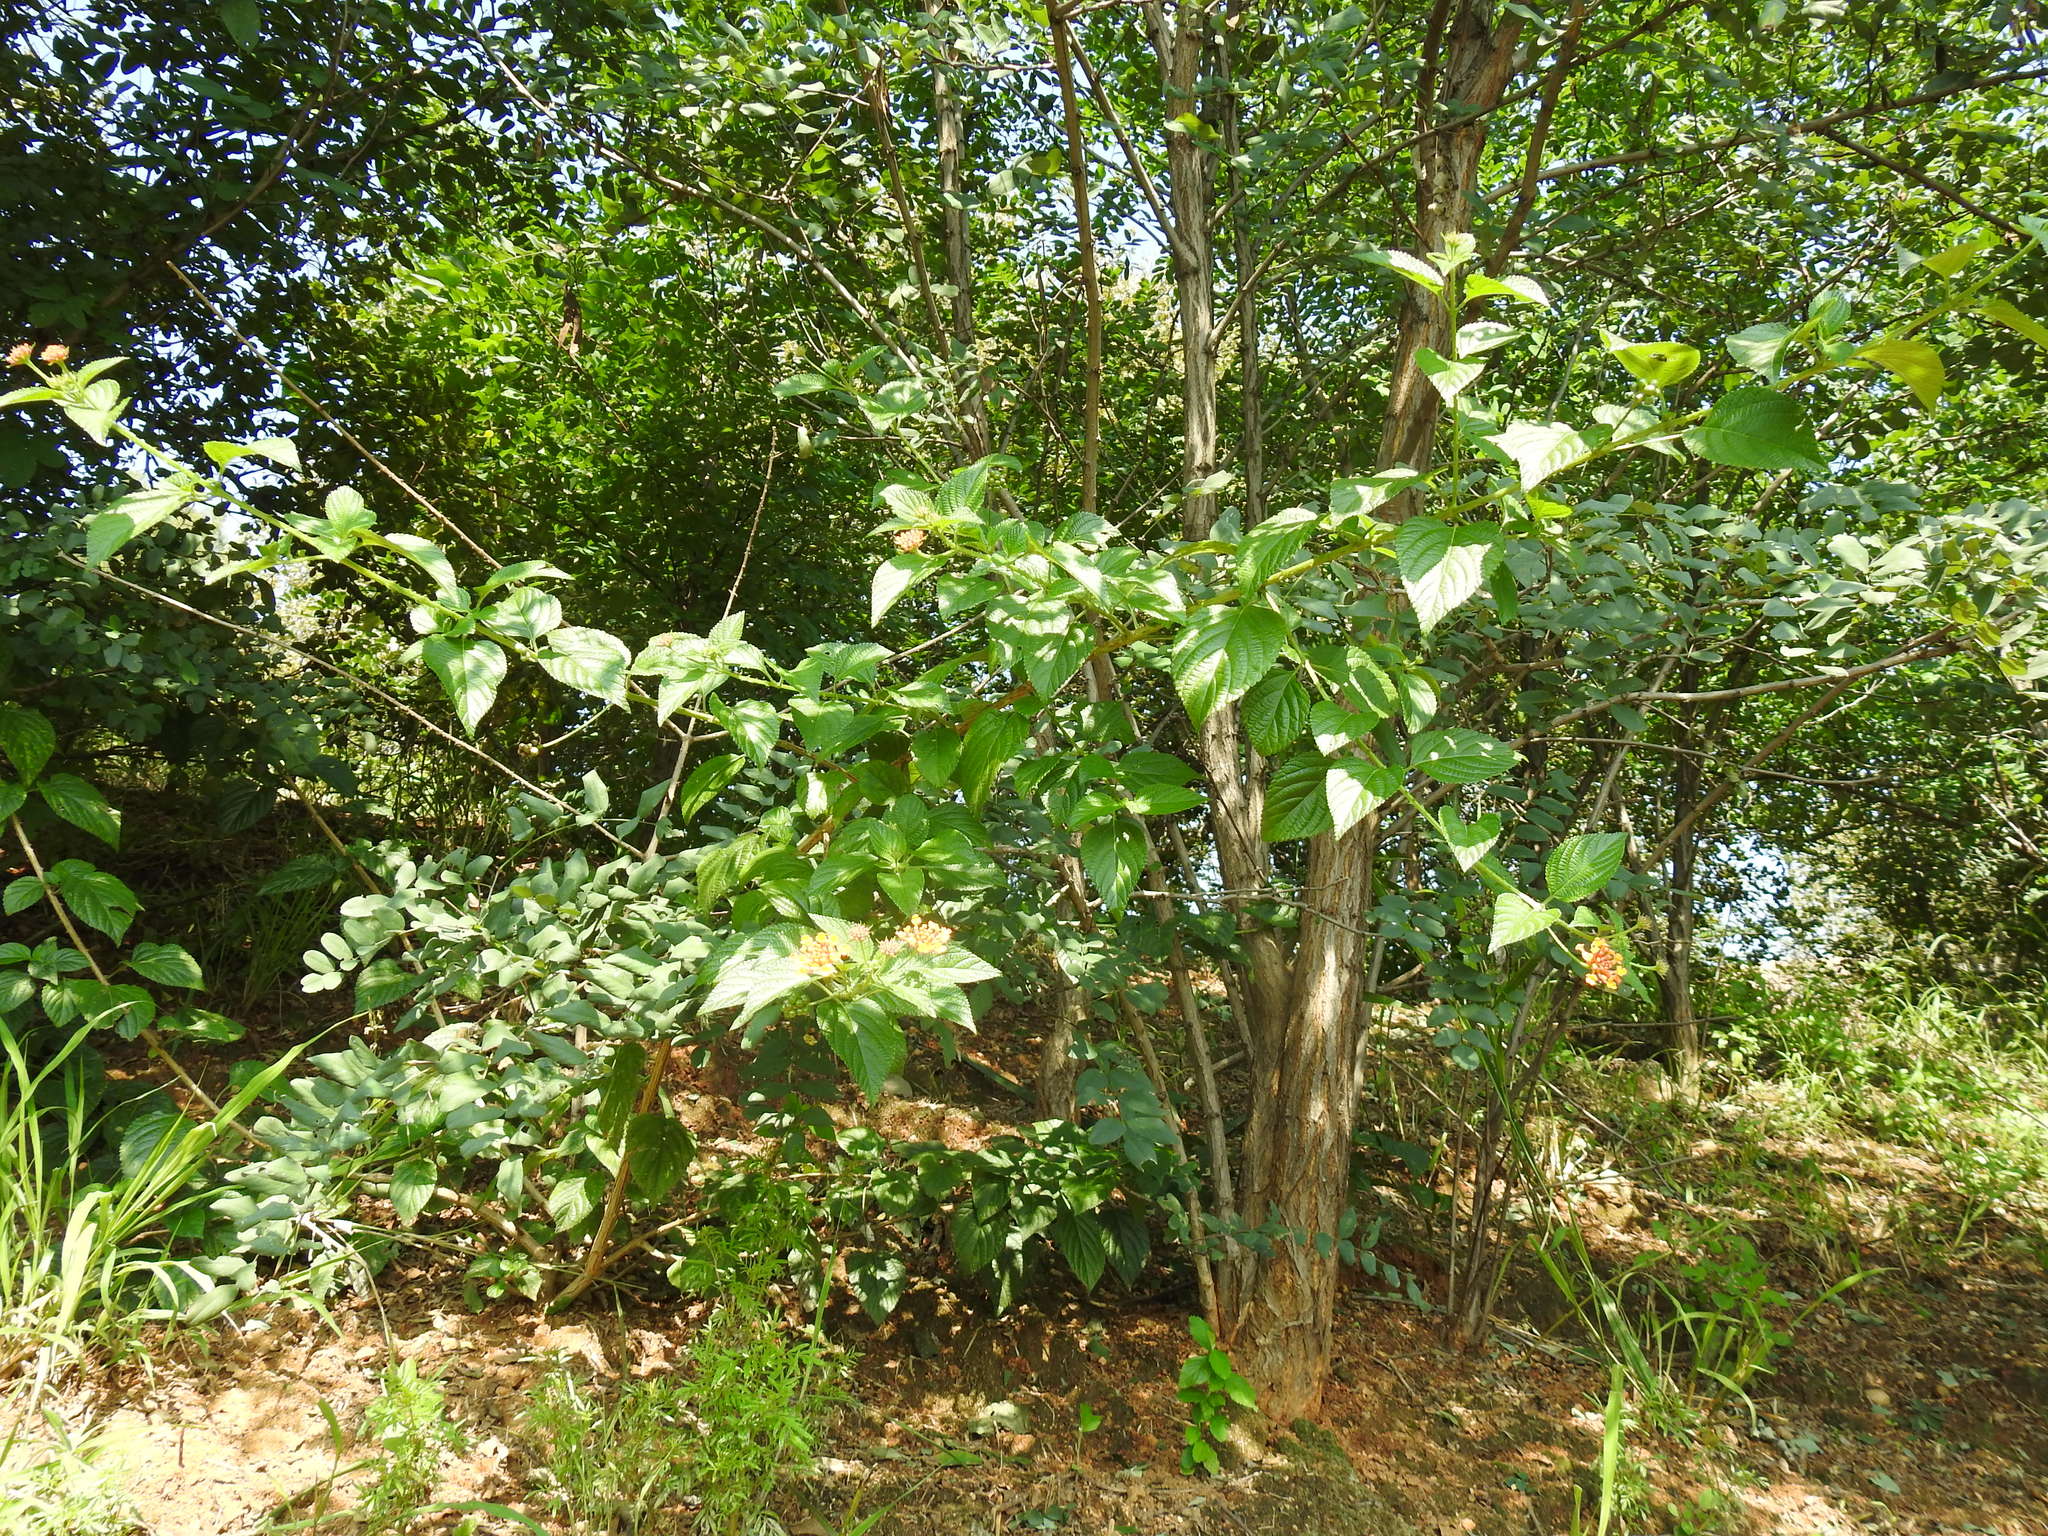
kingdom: Plantae
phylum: Tracheophyta
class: Magnoliopsida
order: Lamiales
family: Verbenaceae
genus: Lantana
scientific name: Lantana camara
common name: Lantana
